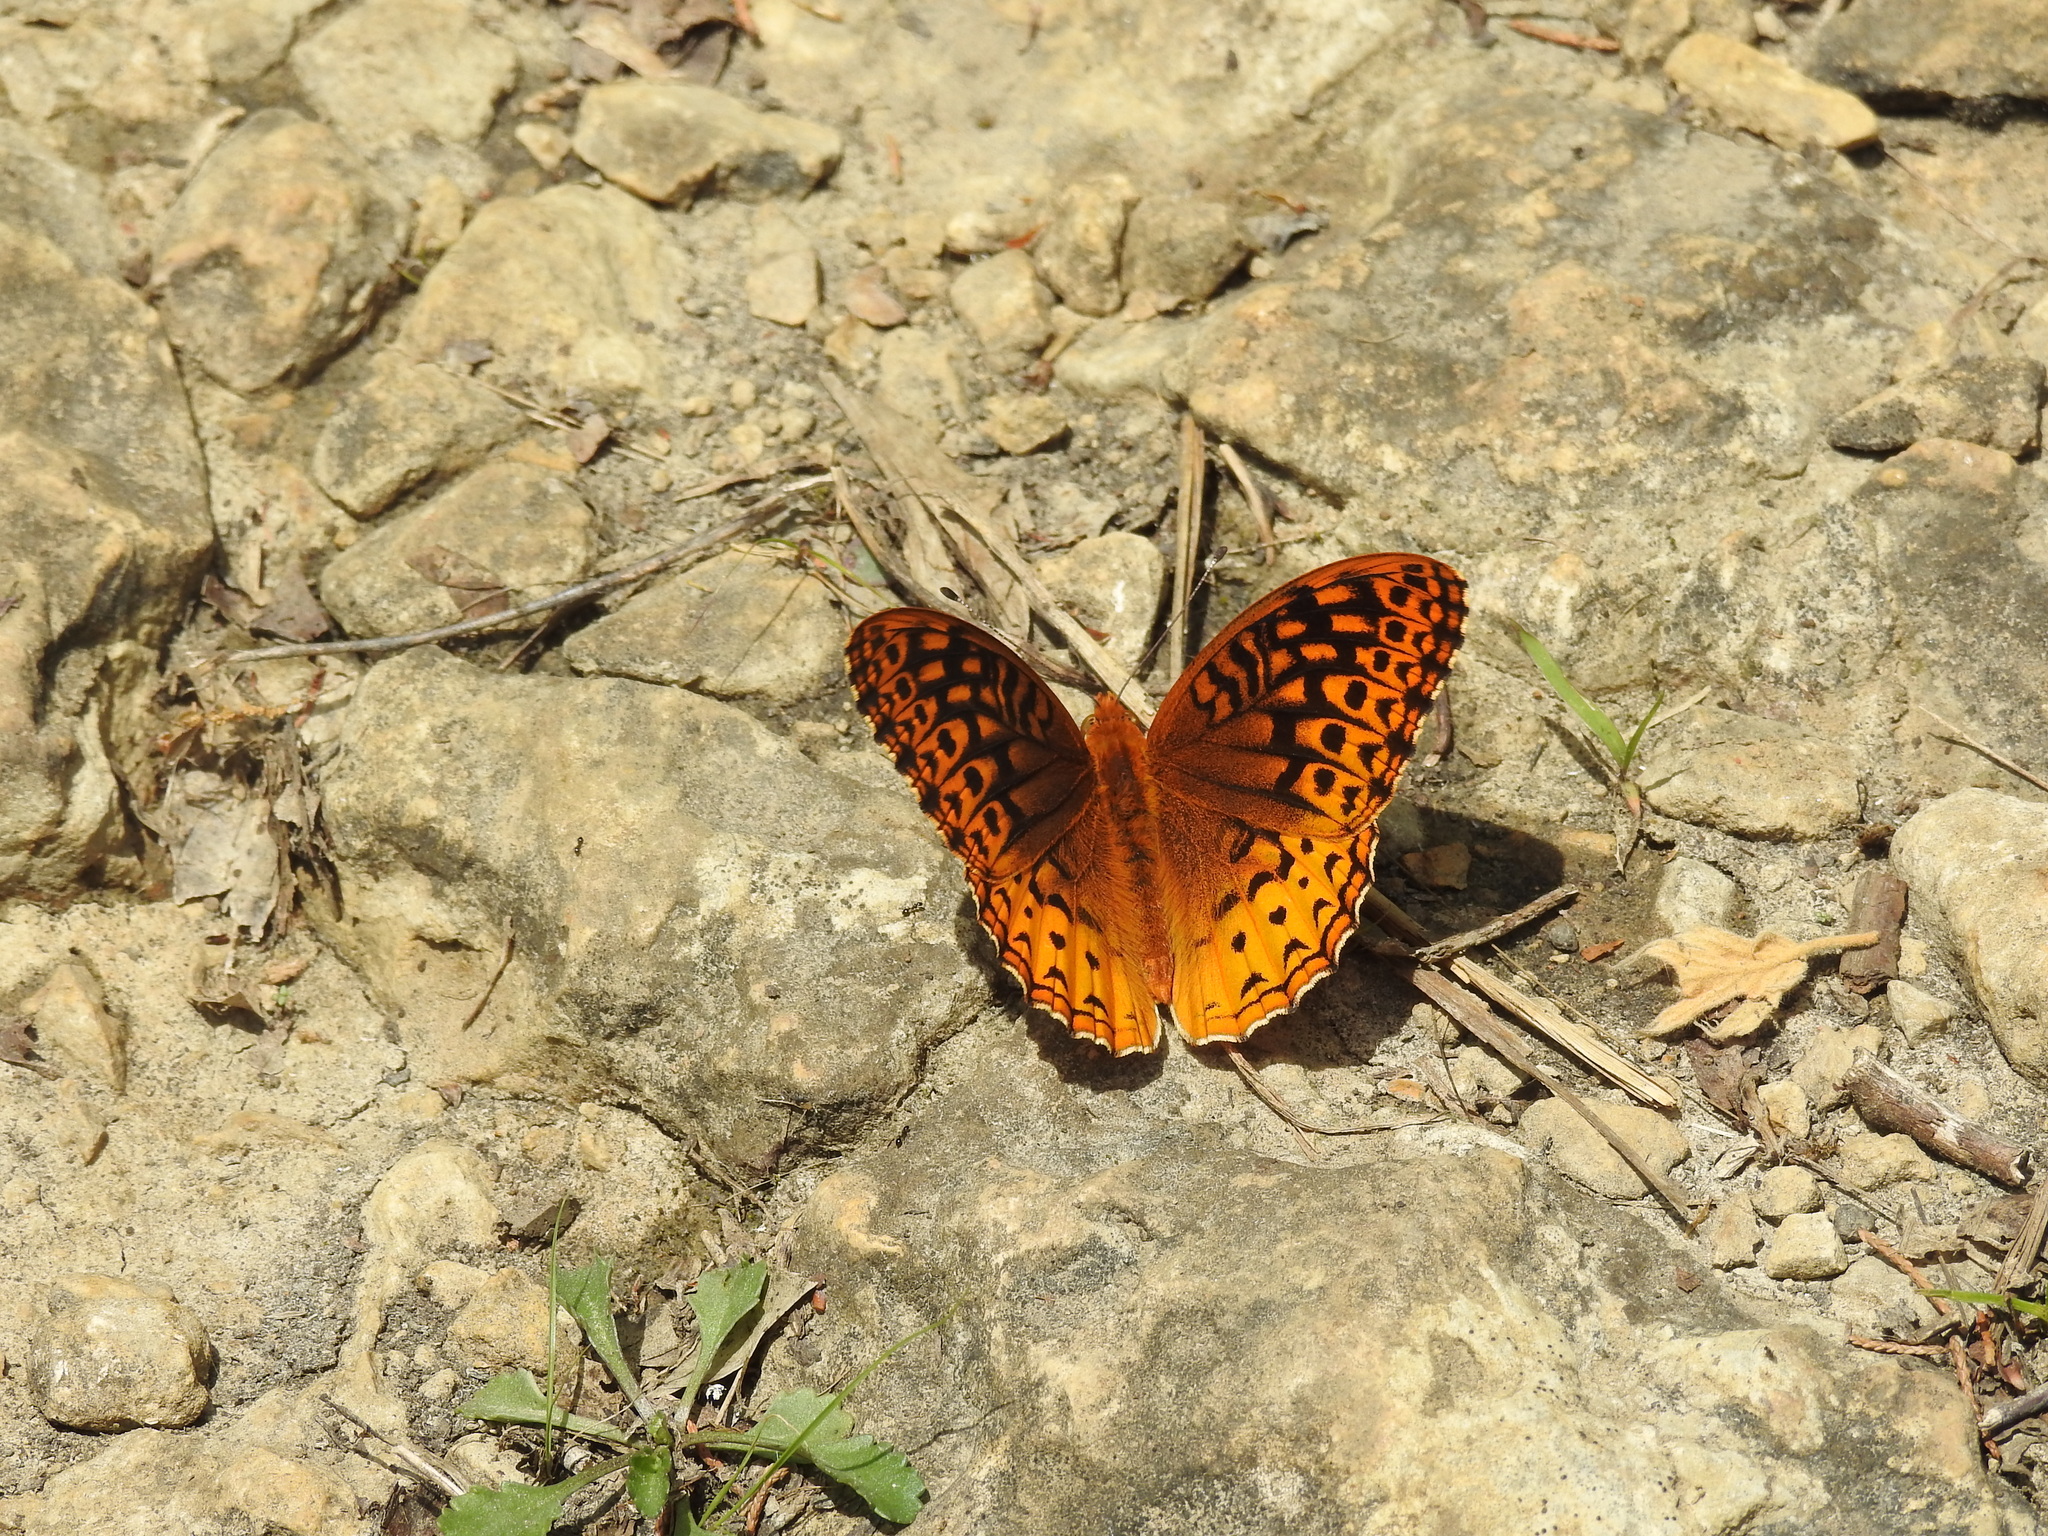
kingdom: Animalia
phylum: Arthropoda
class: Insecta
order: Lepidoptera
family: Nymphalidae
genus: Speyeria
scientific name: Speyeria cybele
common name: Great spangled fritillary
